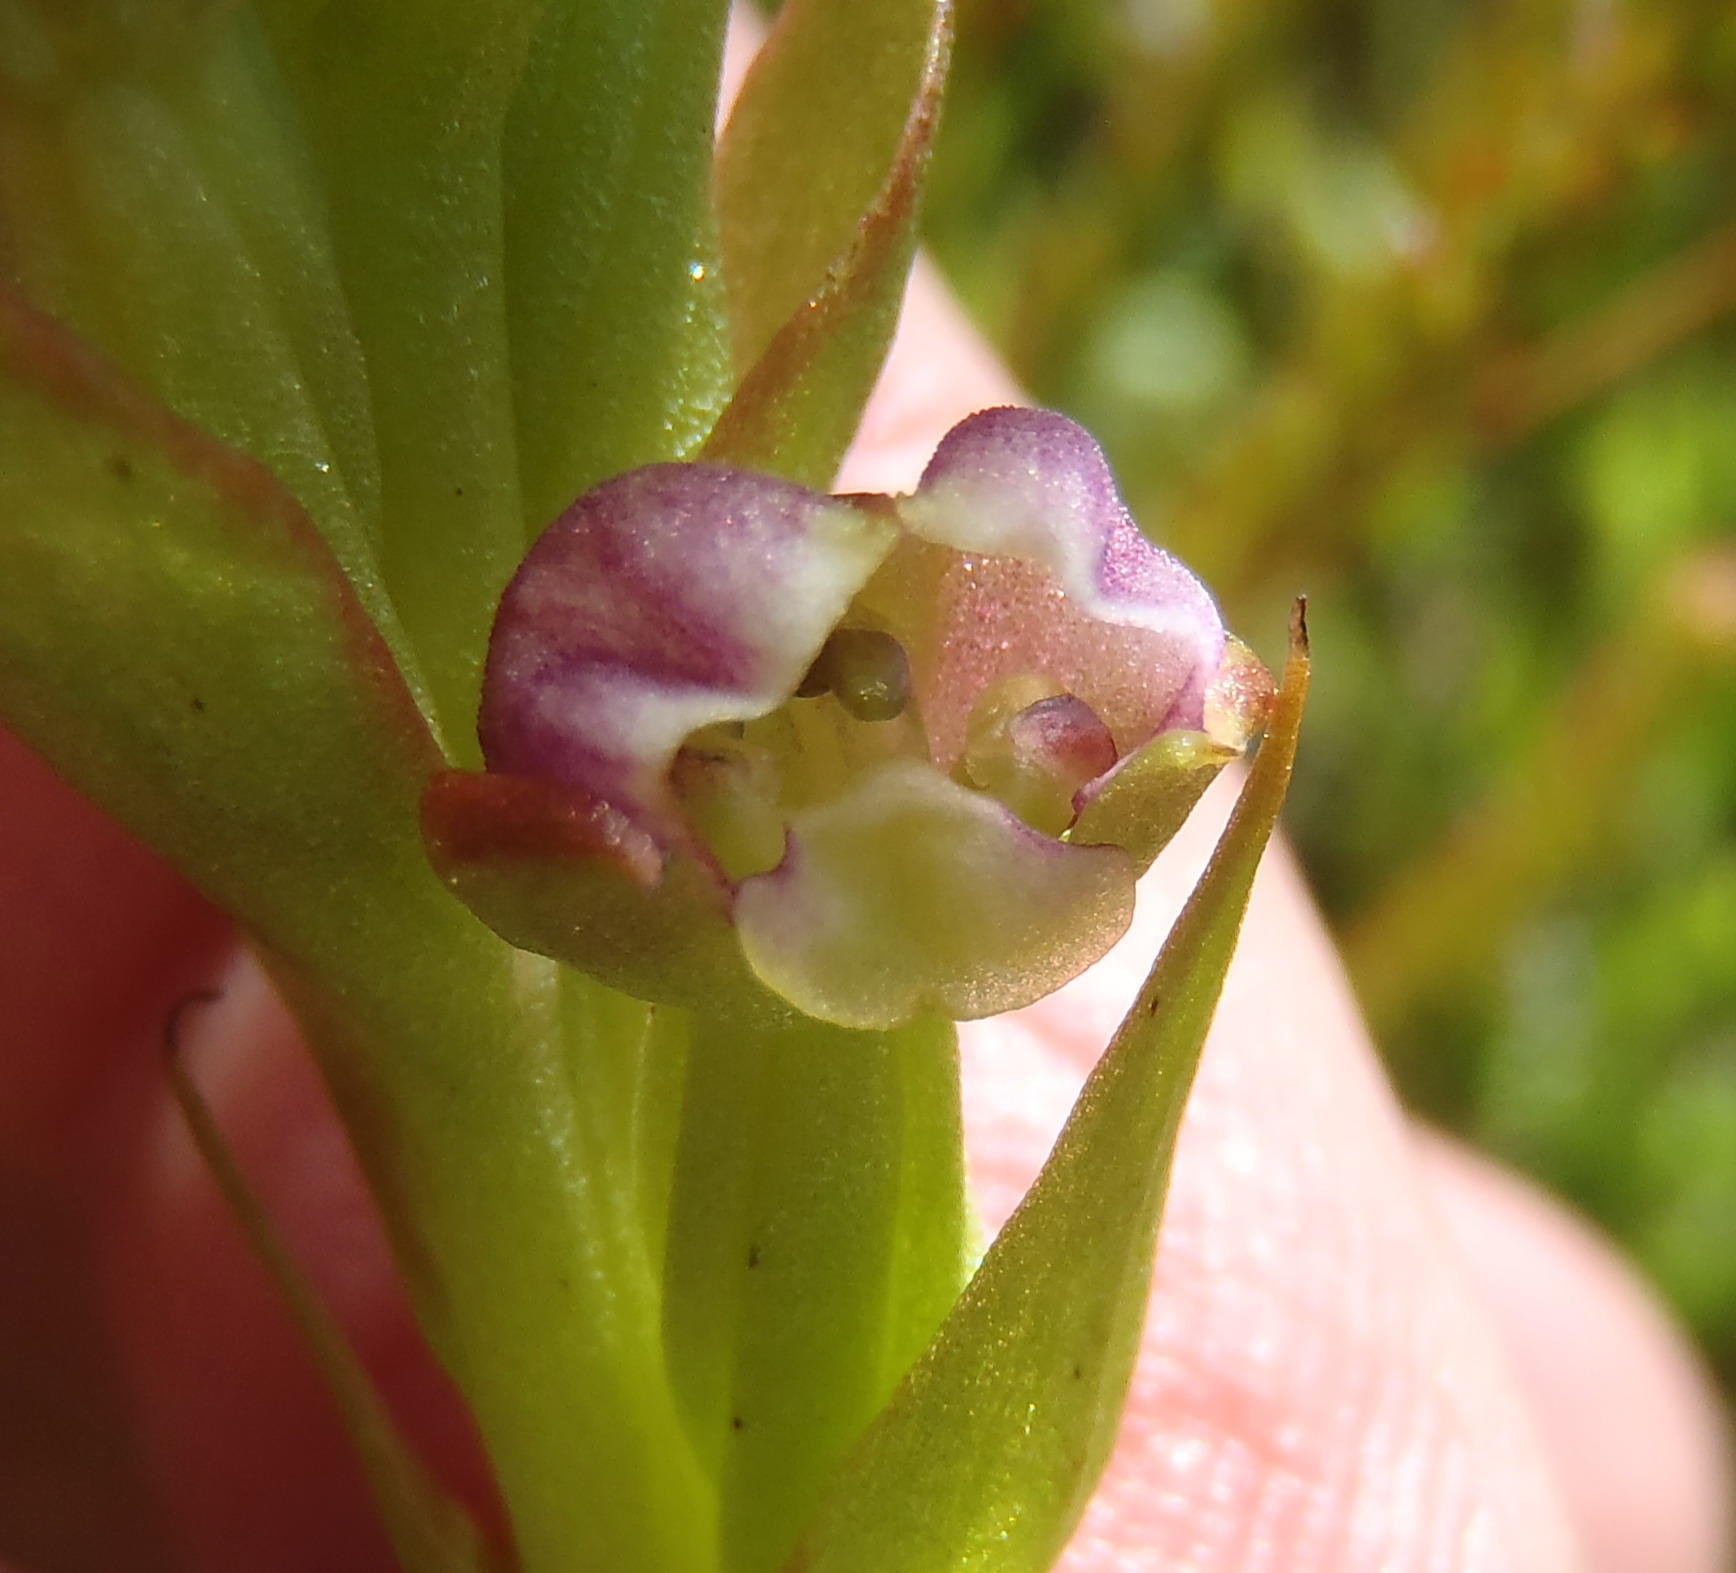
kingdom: Plantae
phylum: Tracheophyta
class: Liliopsida
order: Asparagales
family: Orchidaceae
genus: Evotella
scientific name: Evotella carnosa
